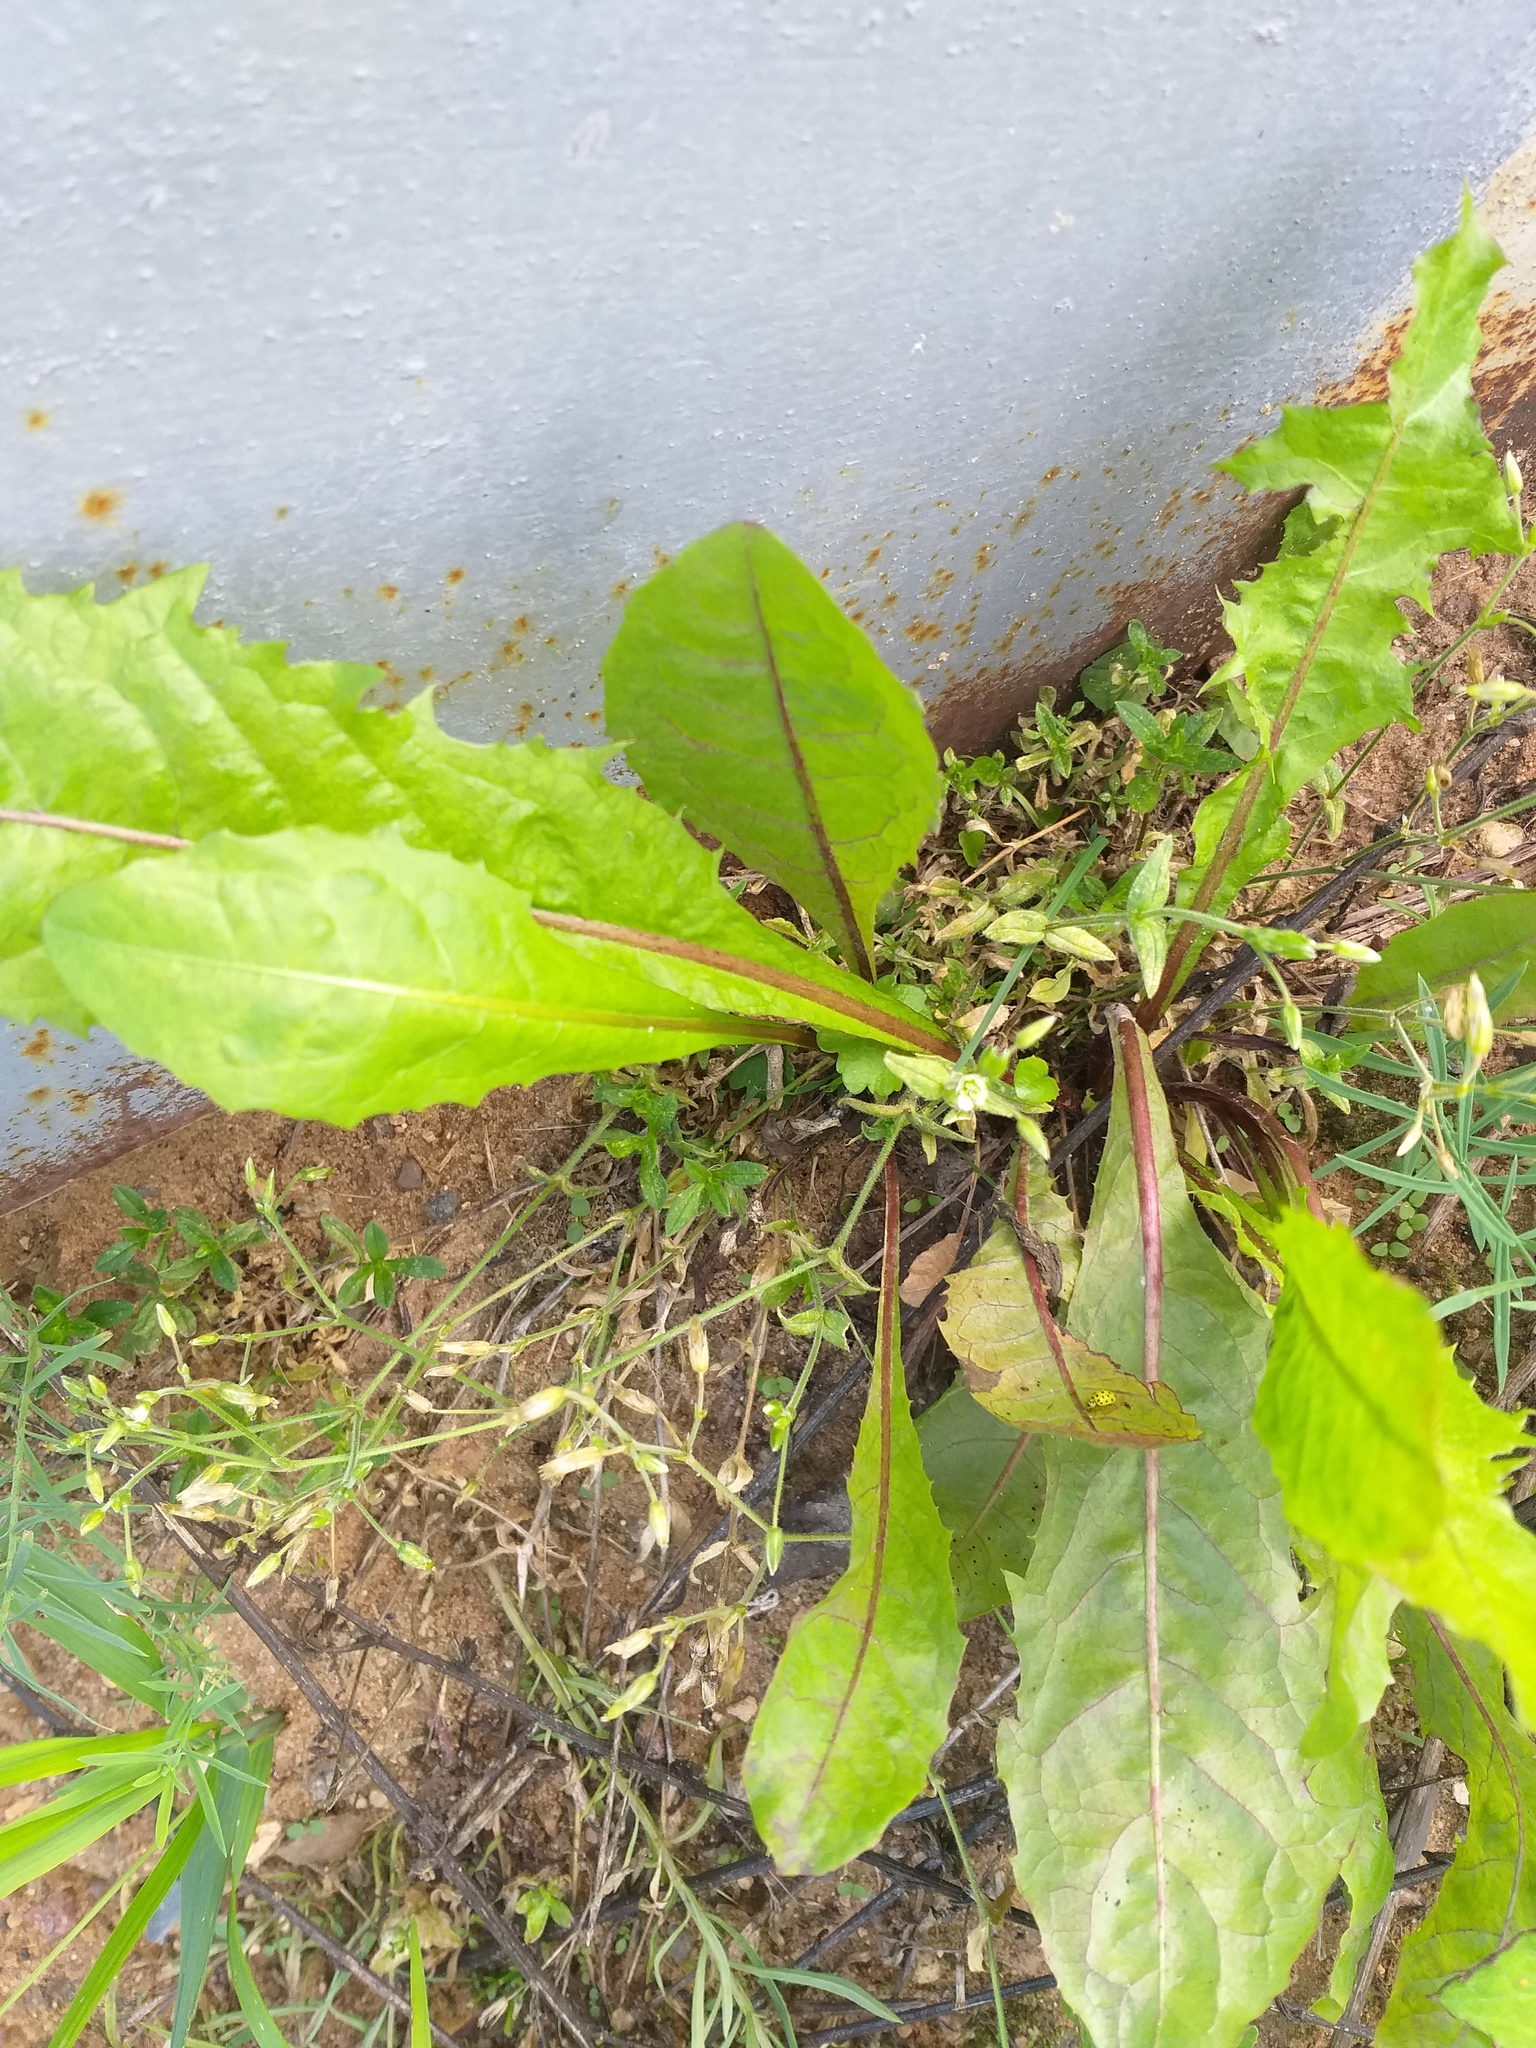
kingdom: Plantae
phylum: Tracheophyta
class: Magnoliopsida
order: Asterales
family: Asteraceae
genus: Taraxacum
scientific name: Taraxacum officinale
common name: Common dandelion
